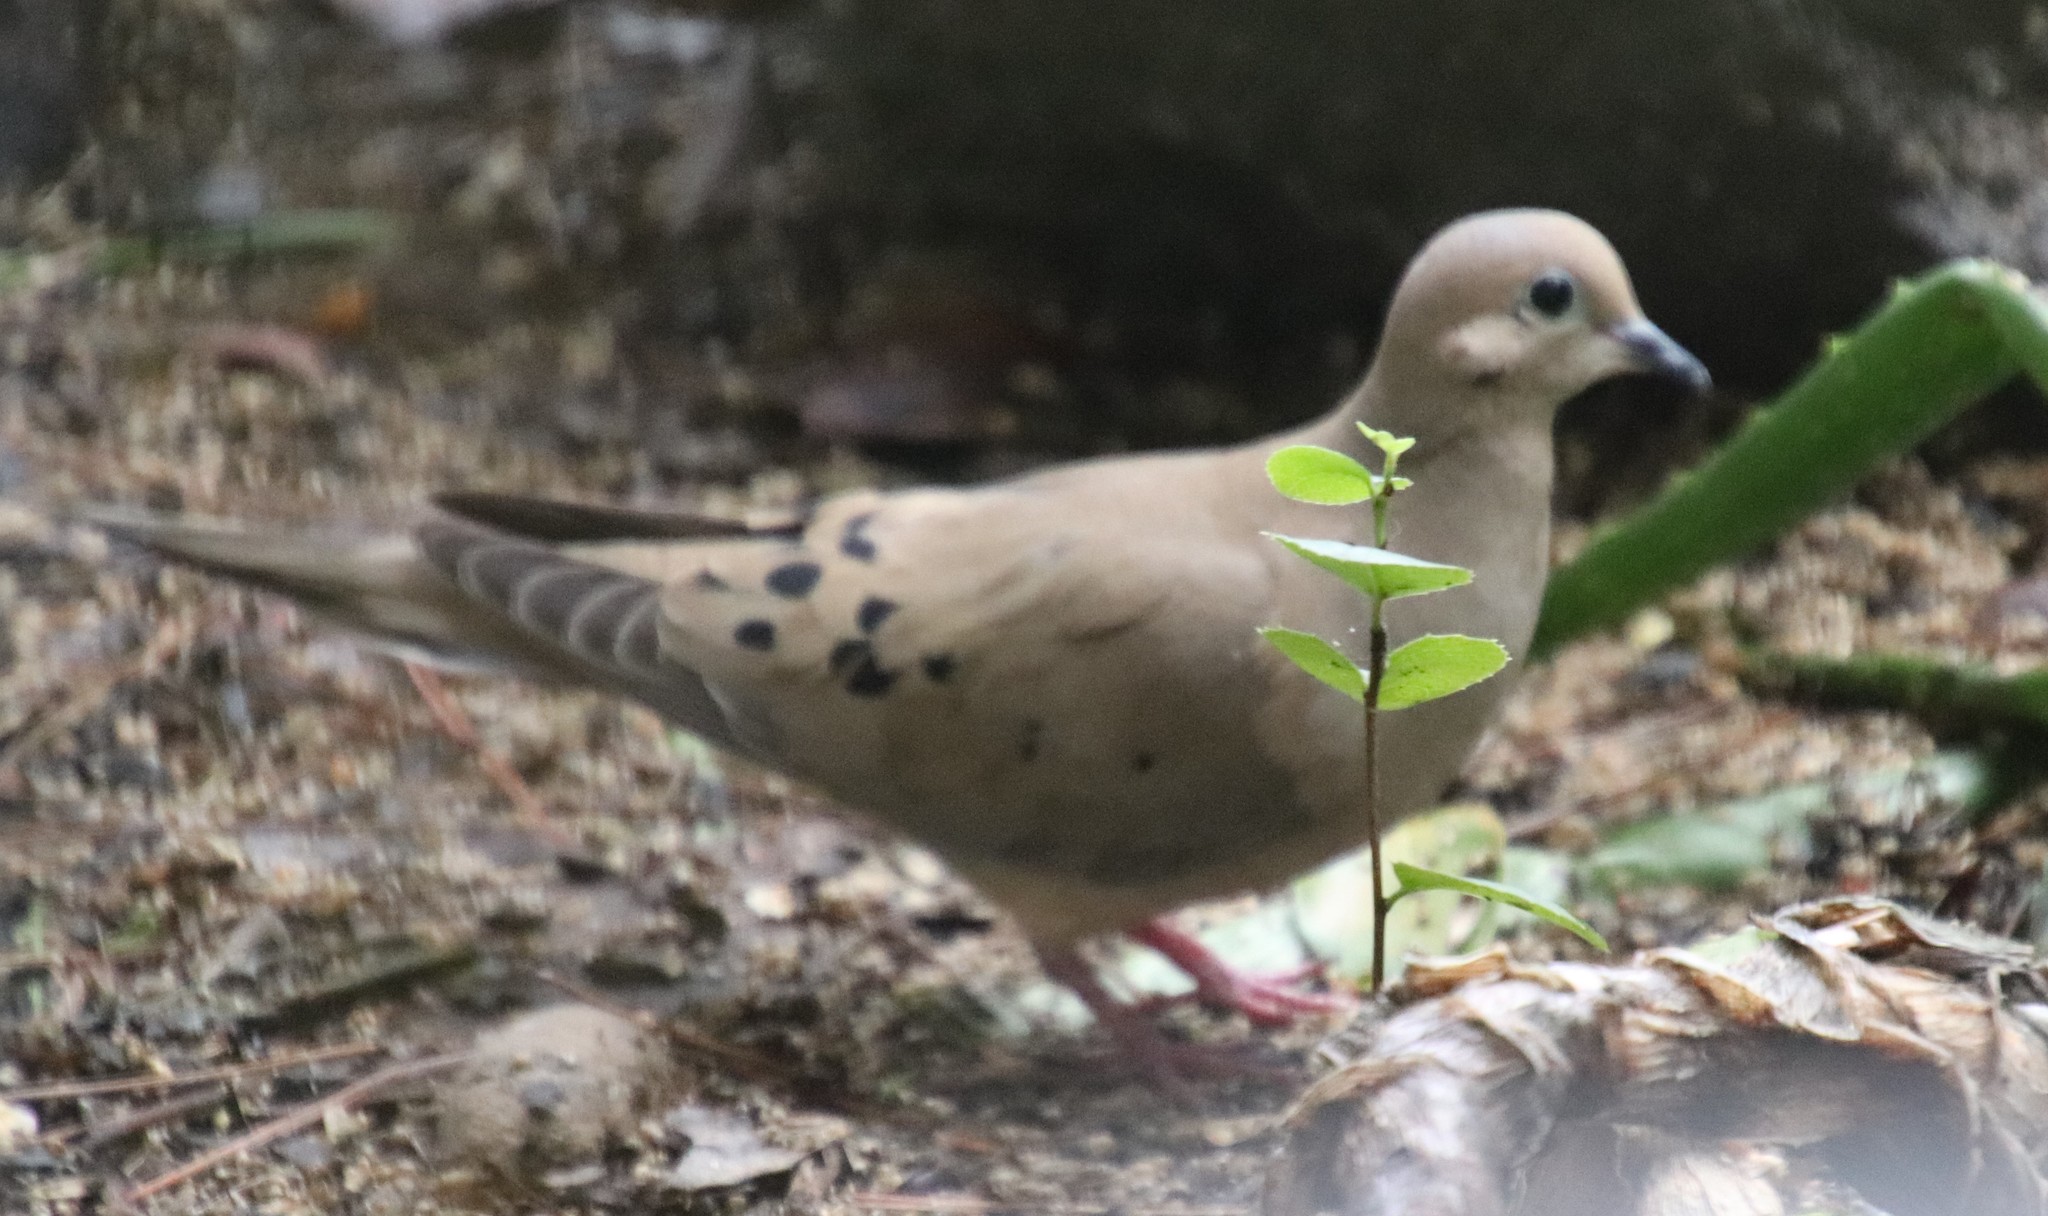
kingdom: Animalia
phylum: Chordata
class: Aves
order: Columbiformes
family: Columbidae
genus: Zenaida
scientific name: Zenaida macroura
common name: Mourning dove
